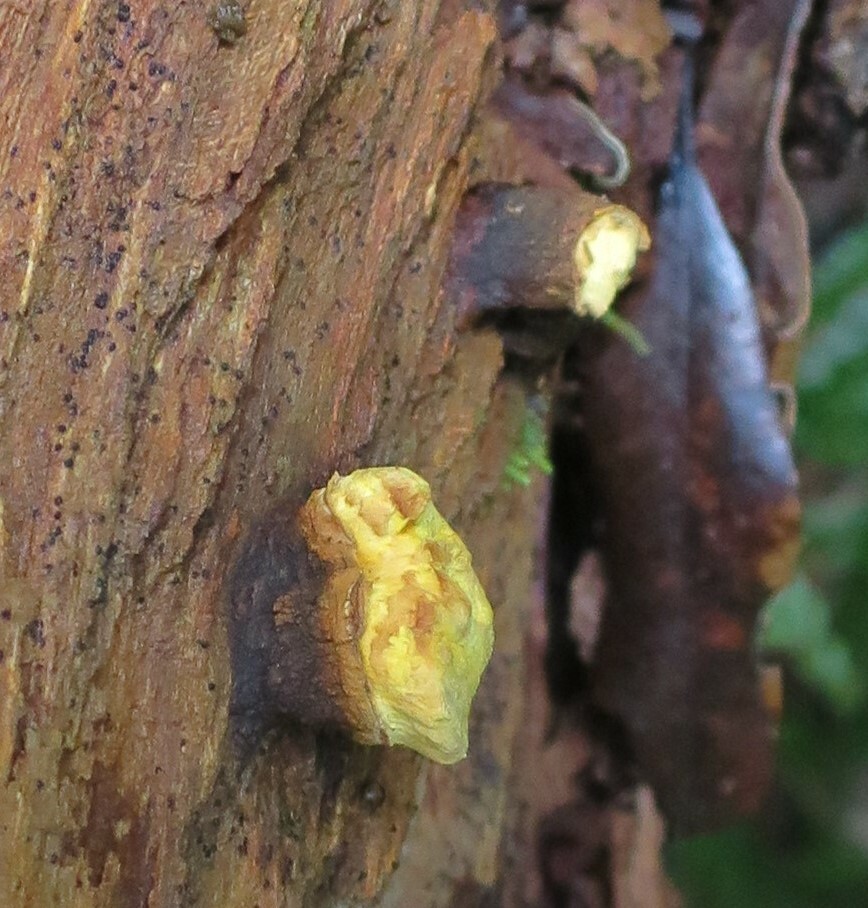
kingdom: Fungi
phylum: Ascomycota
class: Eurotiomycetes
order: Eurotiales
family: Trichocomaceae
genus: Trichocoma
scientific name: Trichocoma paradoxa
